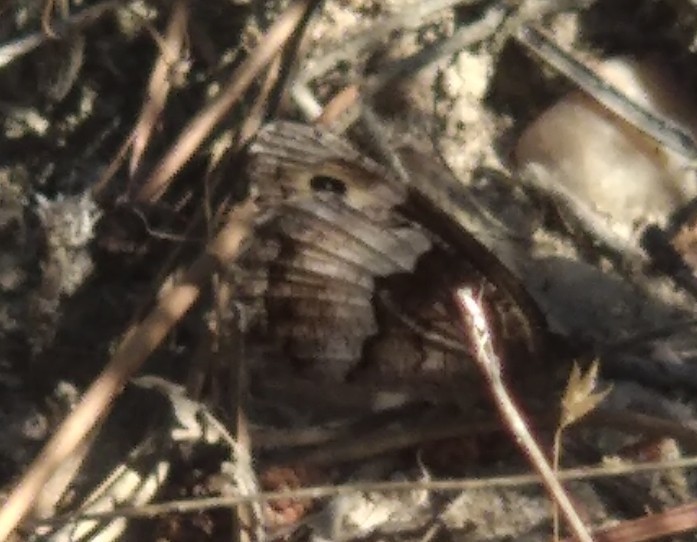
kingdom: Animalia
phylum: Arthropoda
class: Insecta
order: Lepidoptera
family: Nymphalidae
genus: Hipparchia
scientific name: Hipparchia hermione
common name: Rock grayling
